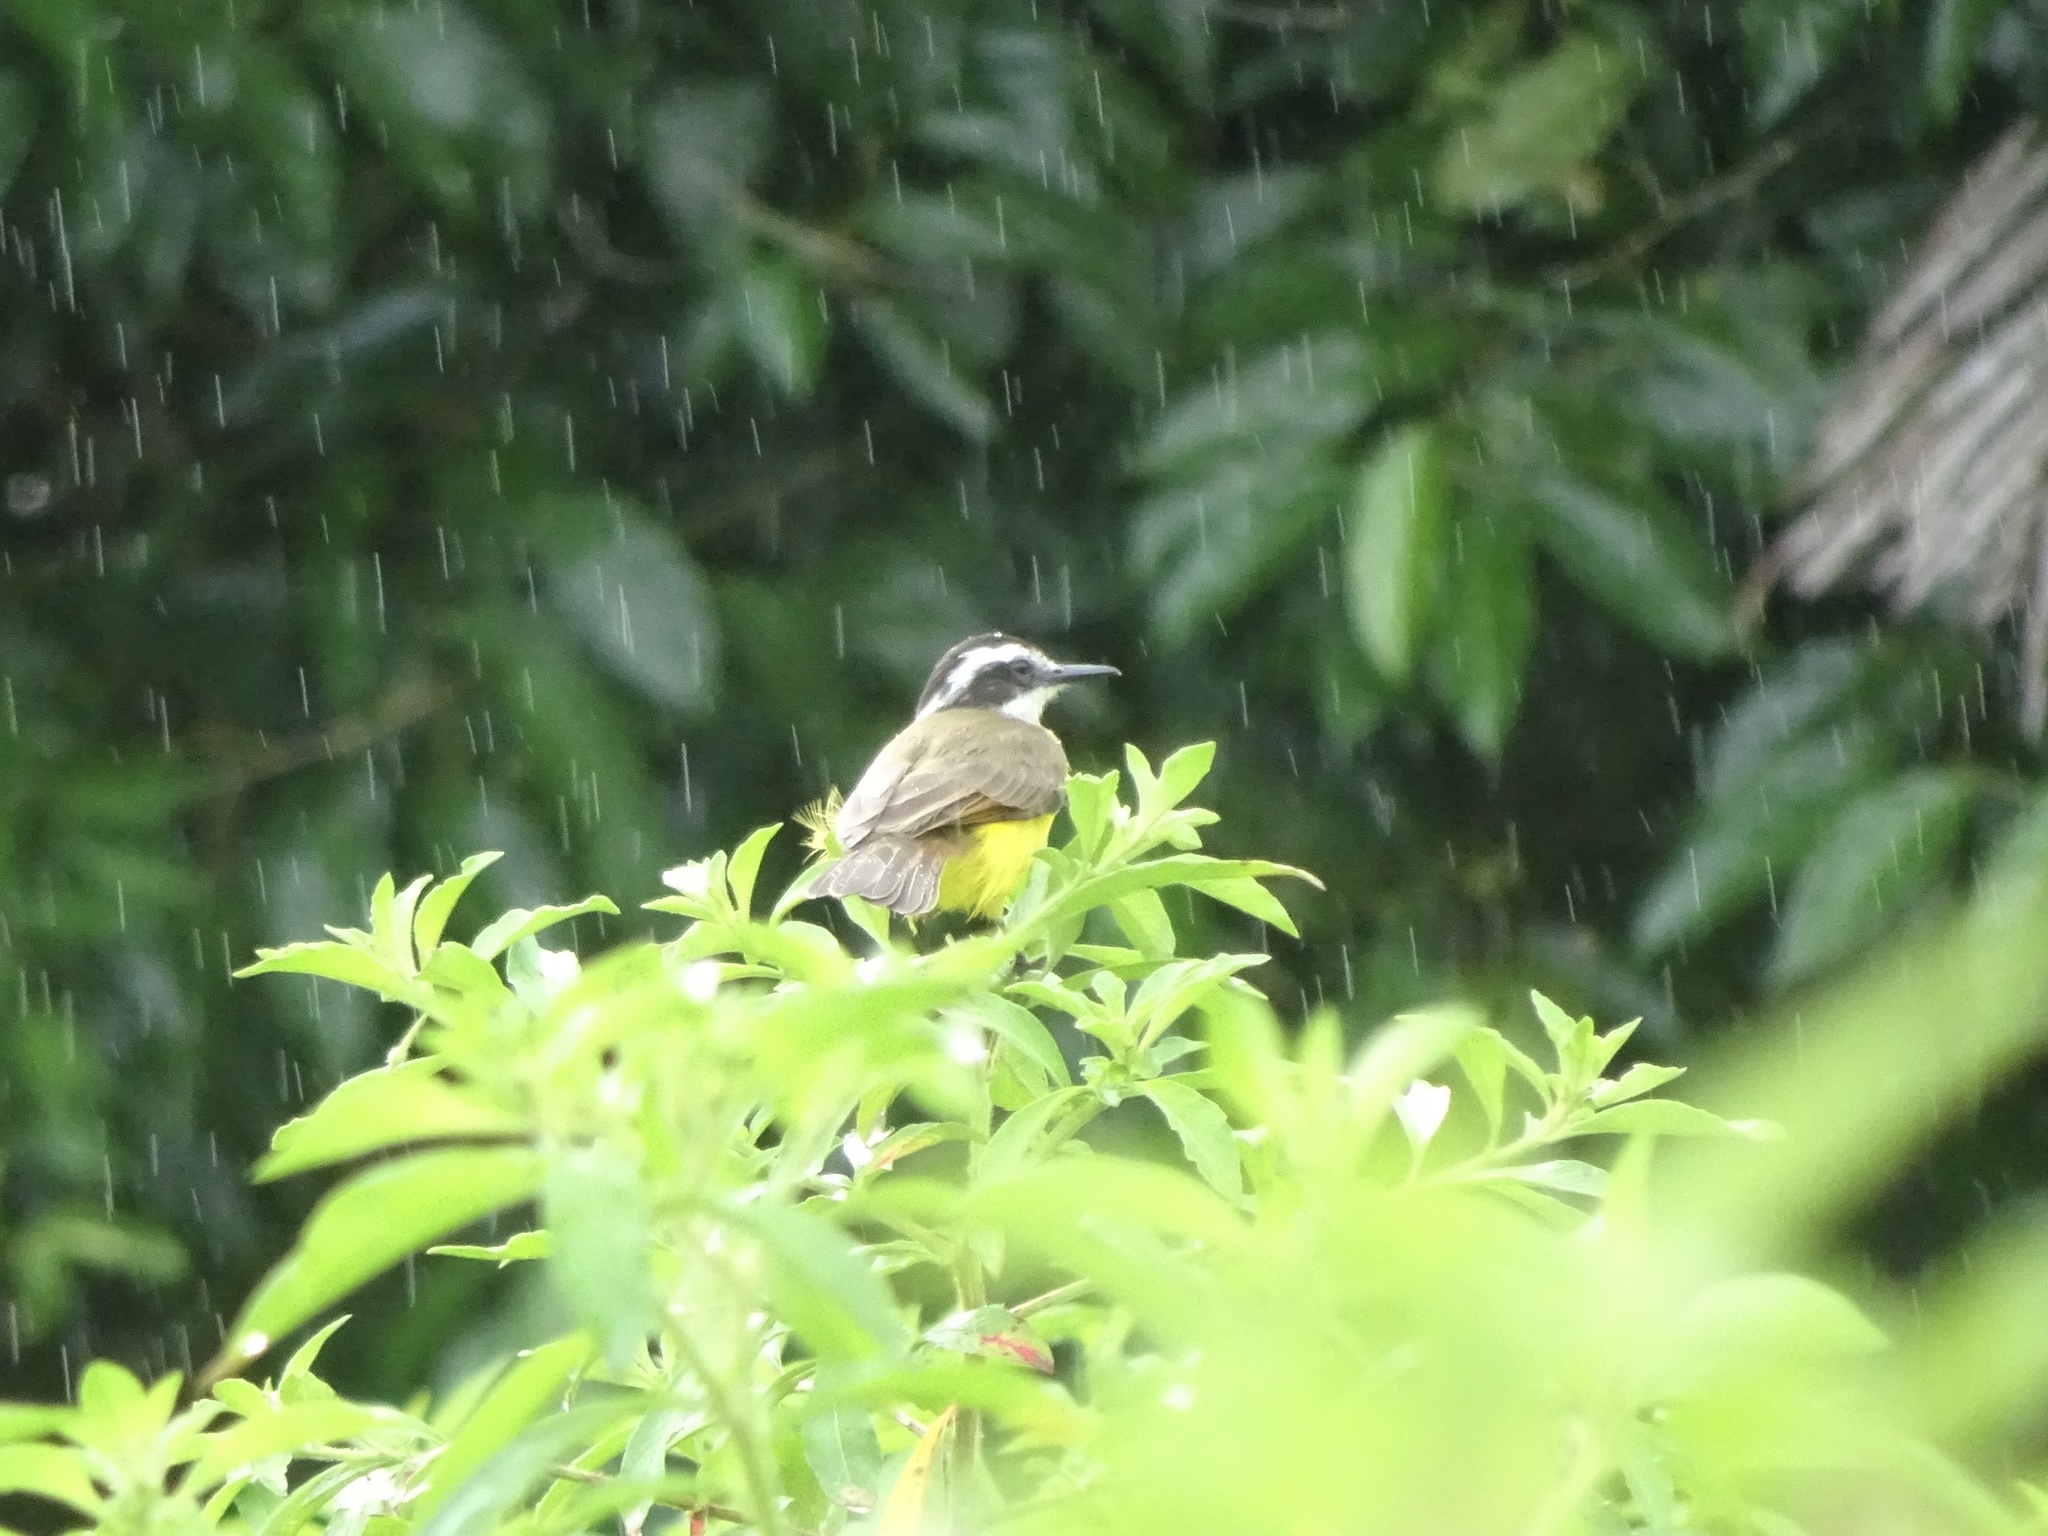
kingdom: Animalia
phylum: Chordata
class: Aves
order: Passeriformes
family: Tyrannidae
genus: Pitangus
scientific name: Pitangus lictor
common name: Lesser kiskadee
